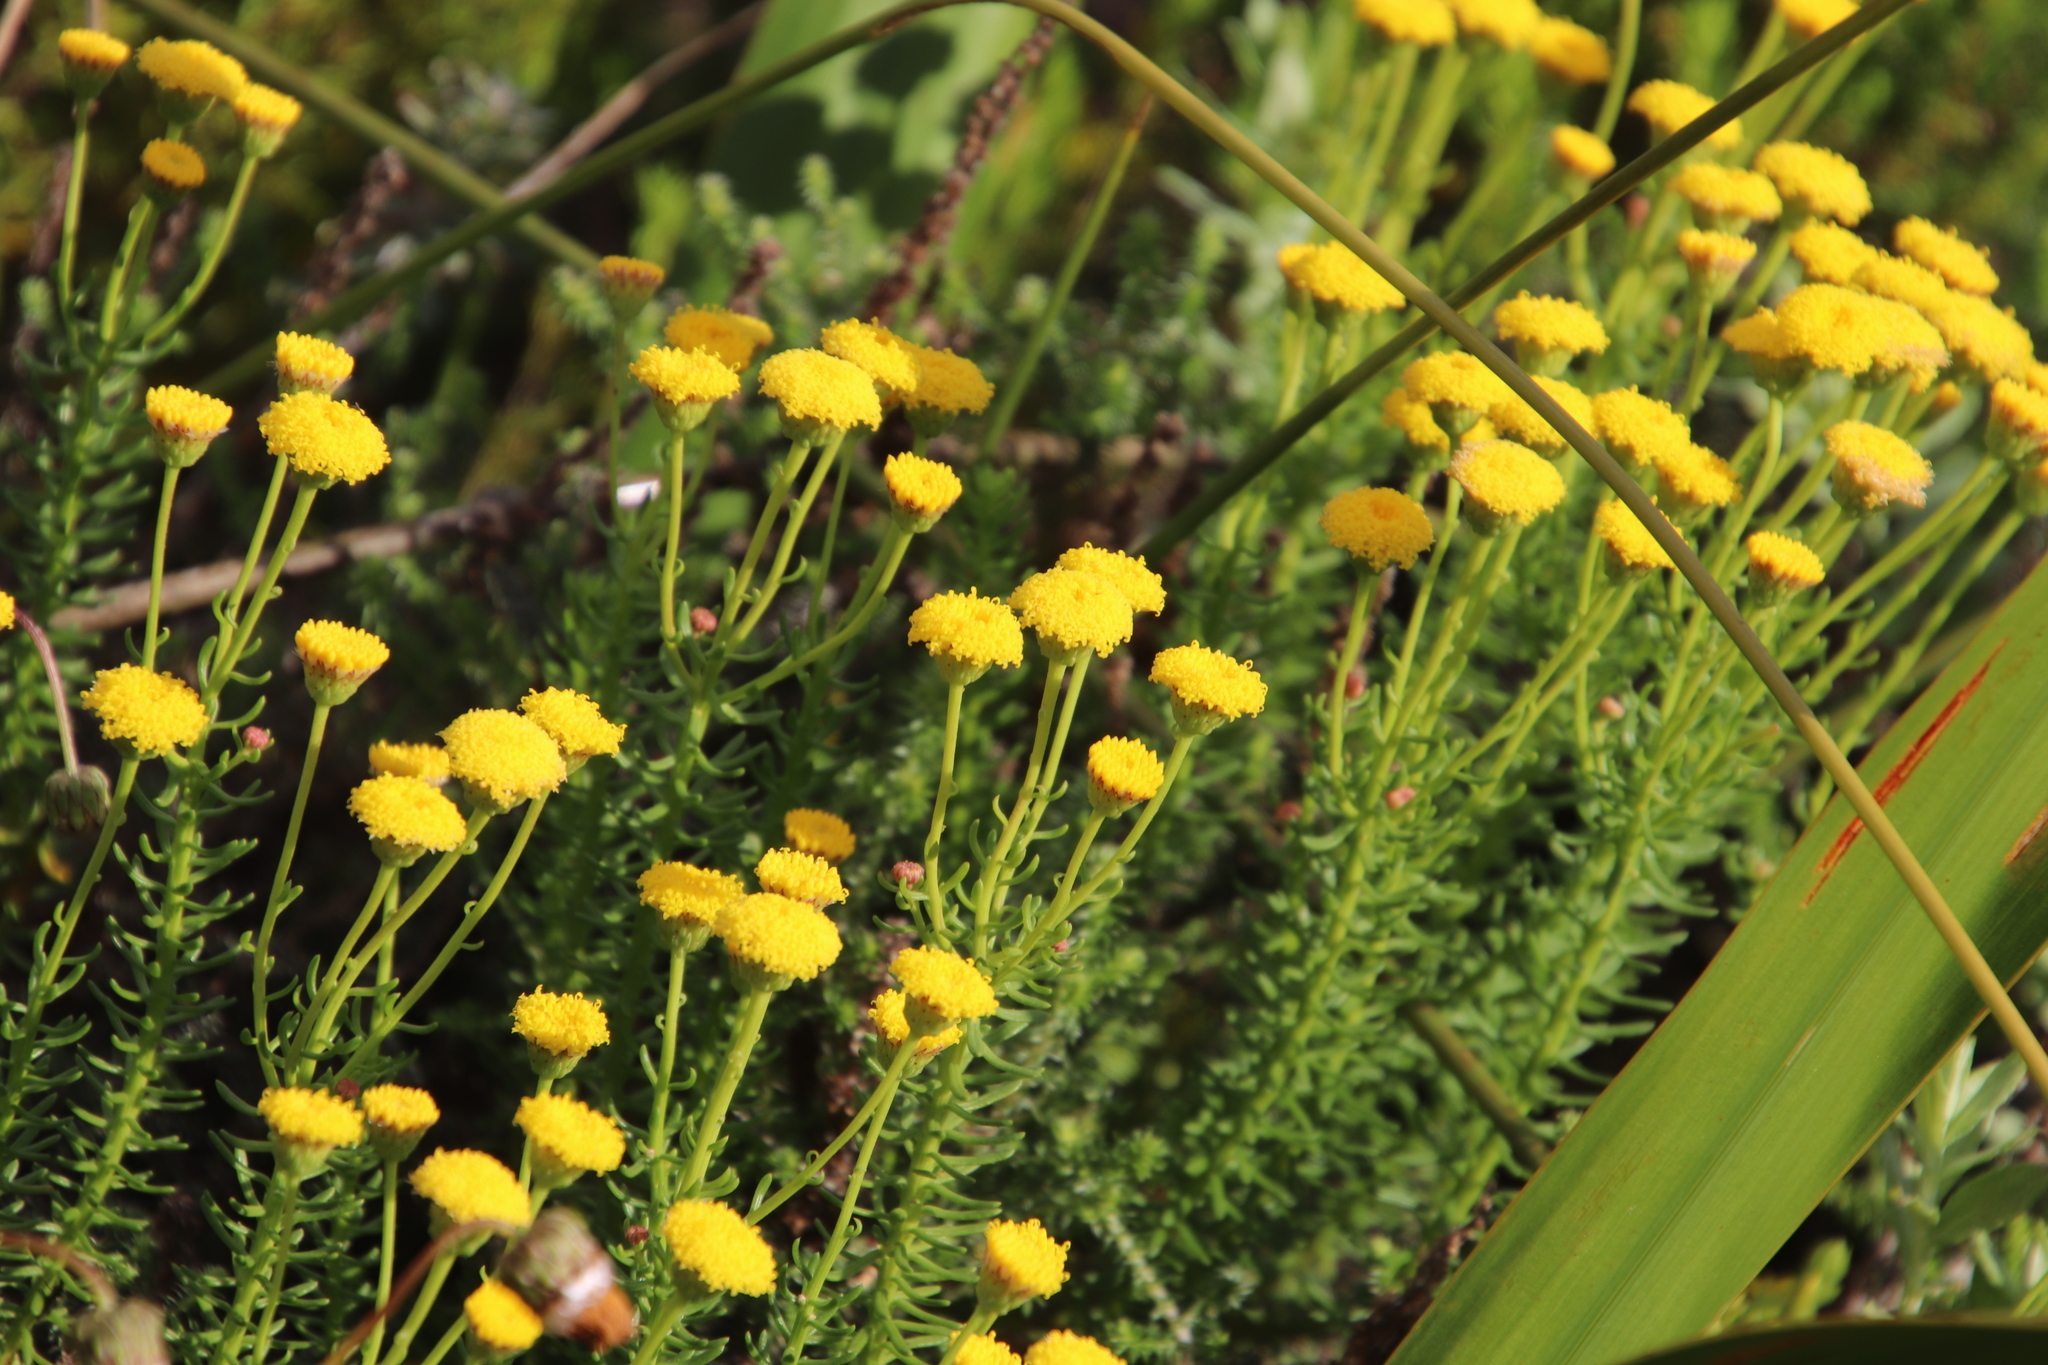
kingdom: Plantae
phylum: Tracheophyta
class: Magnoliopsida
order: Asterales
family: Asteraceae
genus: Chrysocoma
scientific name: Chrysocoma cernua
